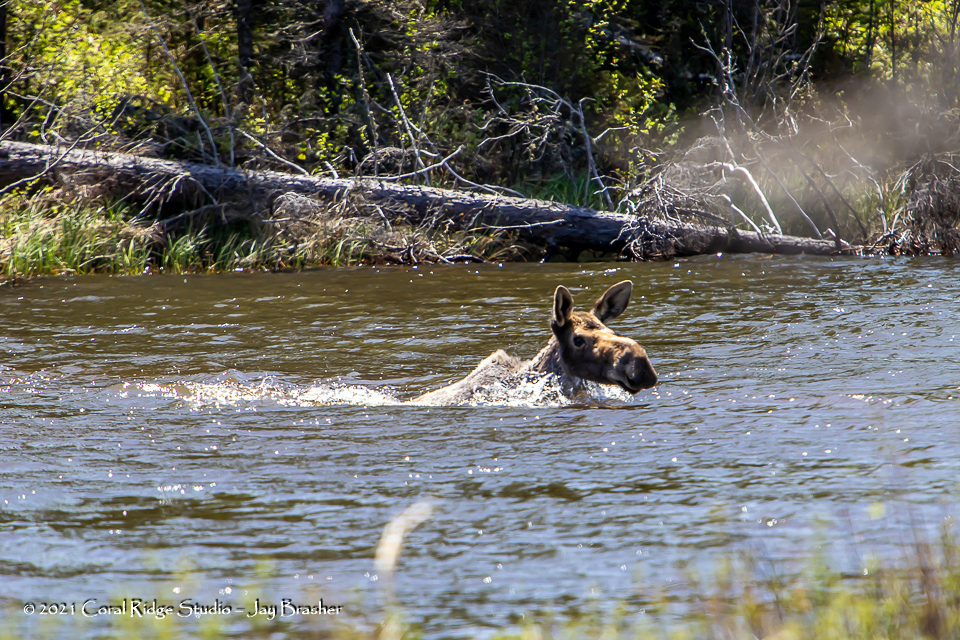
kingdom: Animalia
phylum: Chordata
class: Mammalia
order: Artiodactyla
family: Cervidae
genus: Alces
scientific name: Alces alces
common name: Moose
